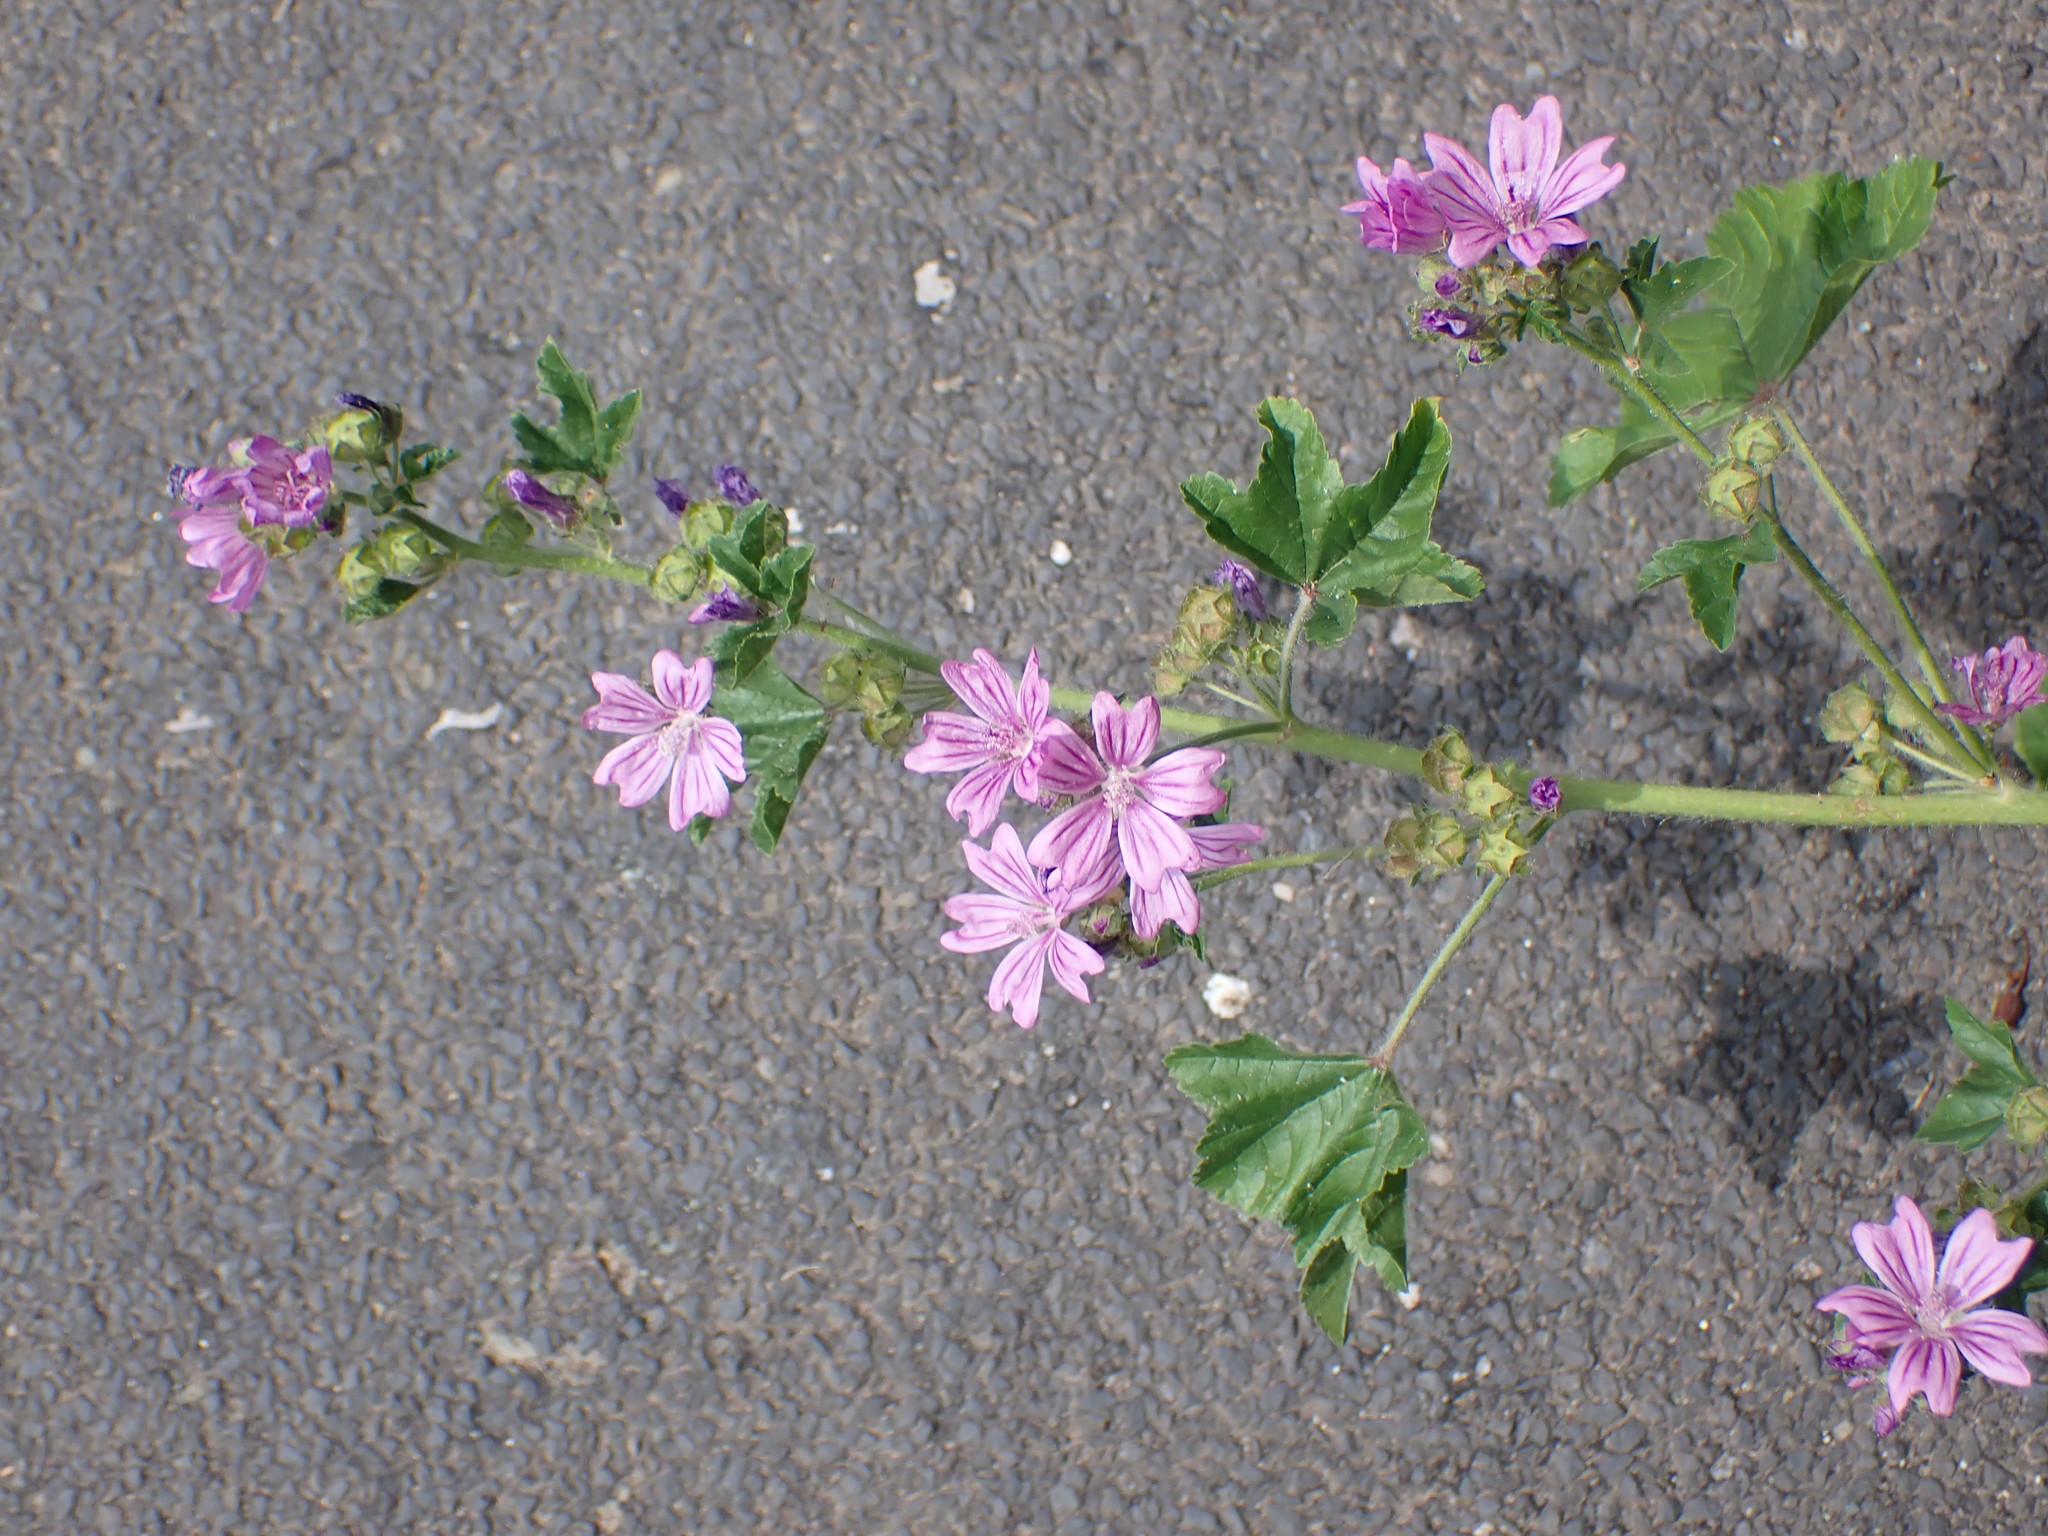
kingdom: Plantae
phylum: Tracheophyta
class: Magnoliopsida
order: Malvales
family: Malvaceae
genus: Malva
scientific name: Malva sylvestris
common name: Common mallow
